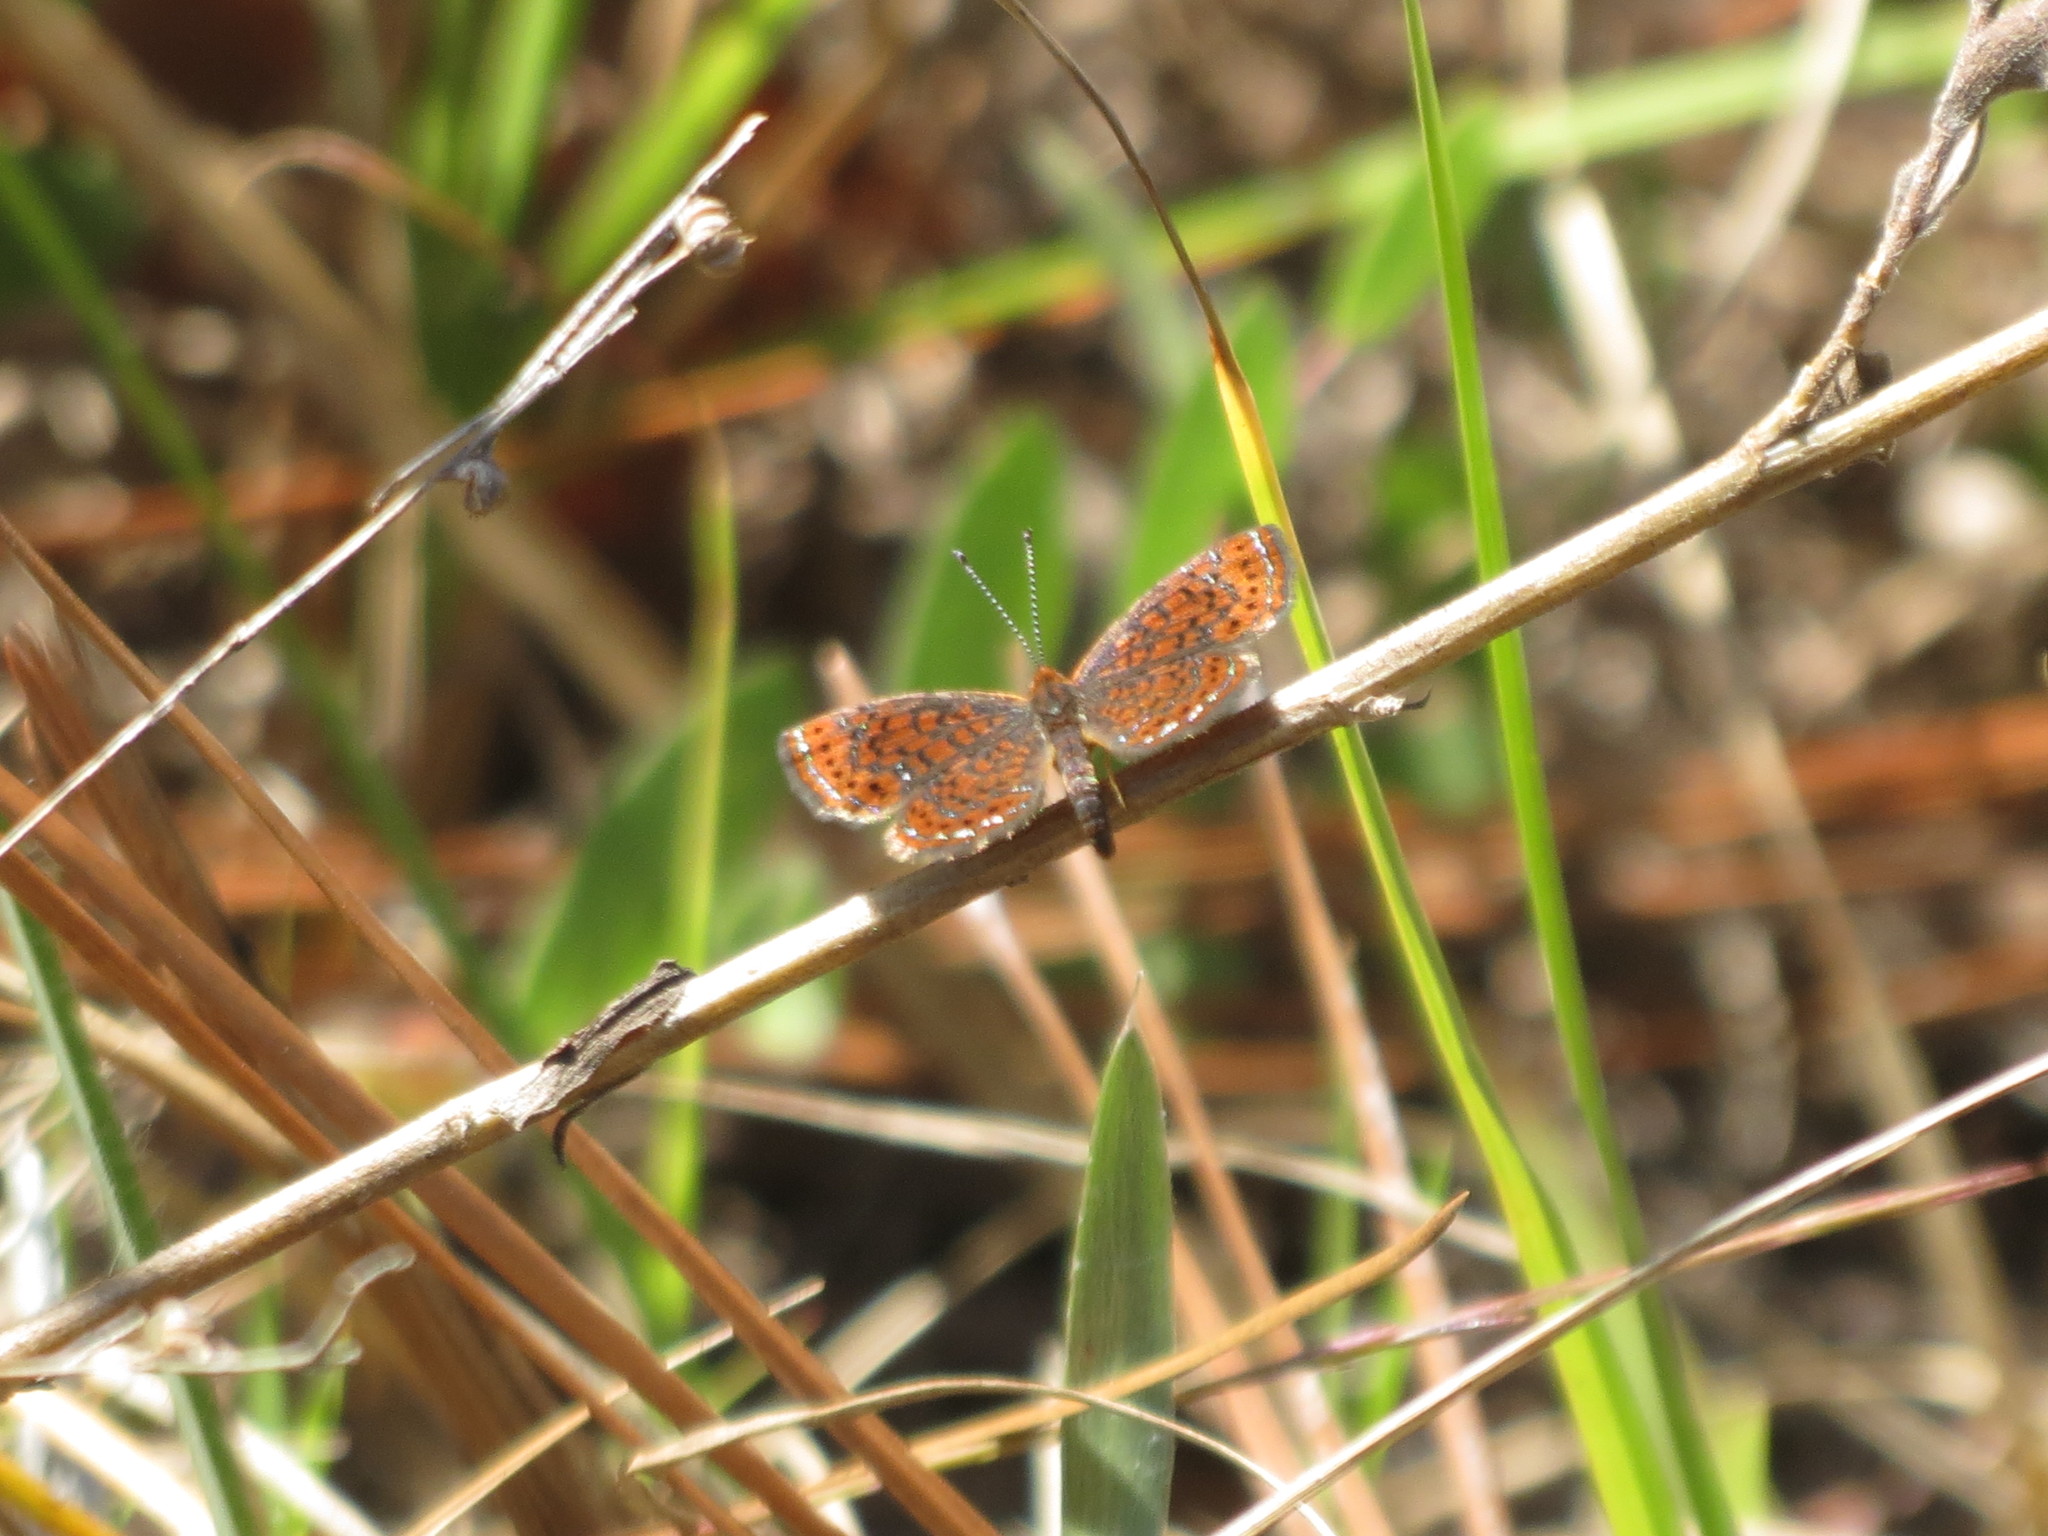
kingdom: Animalia
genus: Calephelis
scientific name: Calephelis virginiensis
